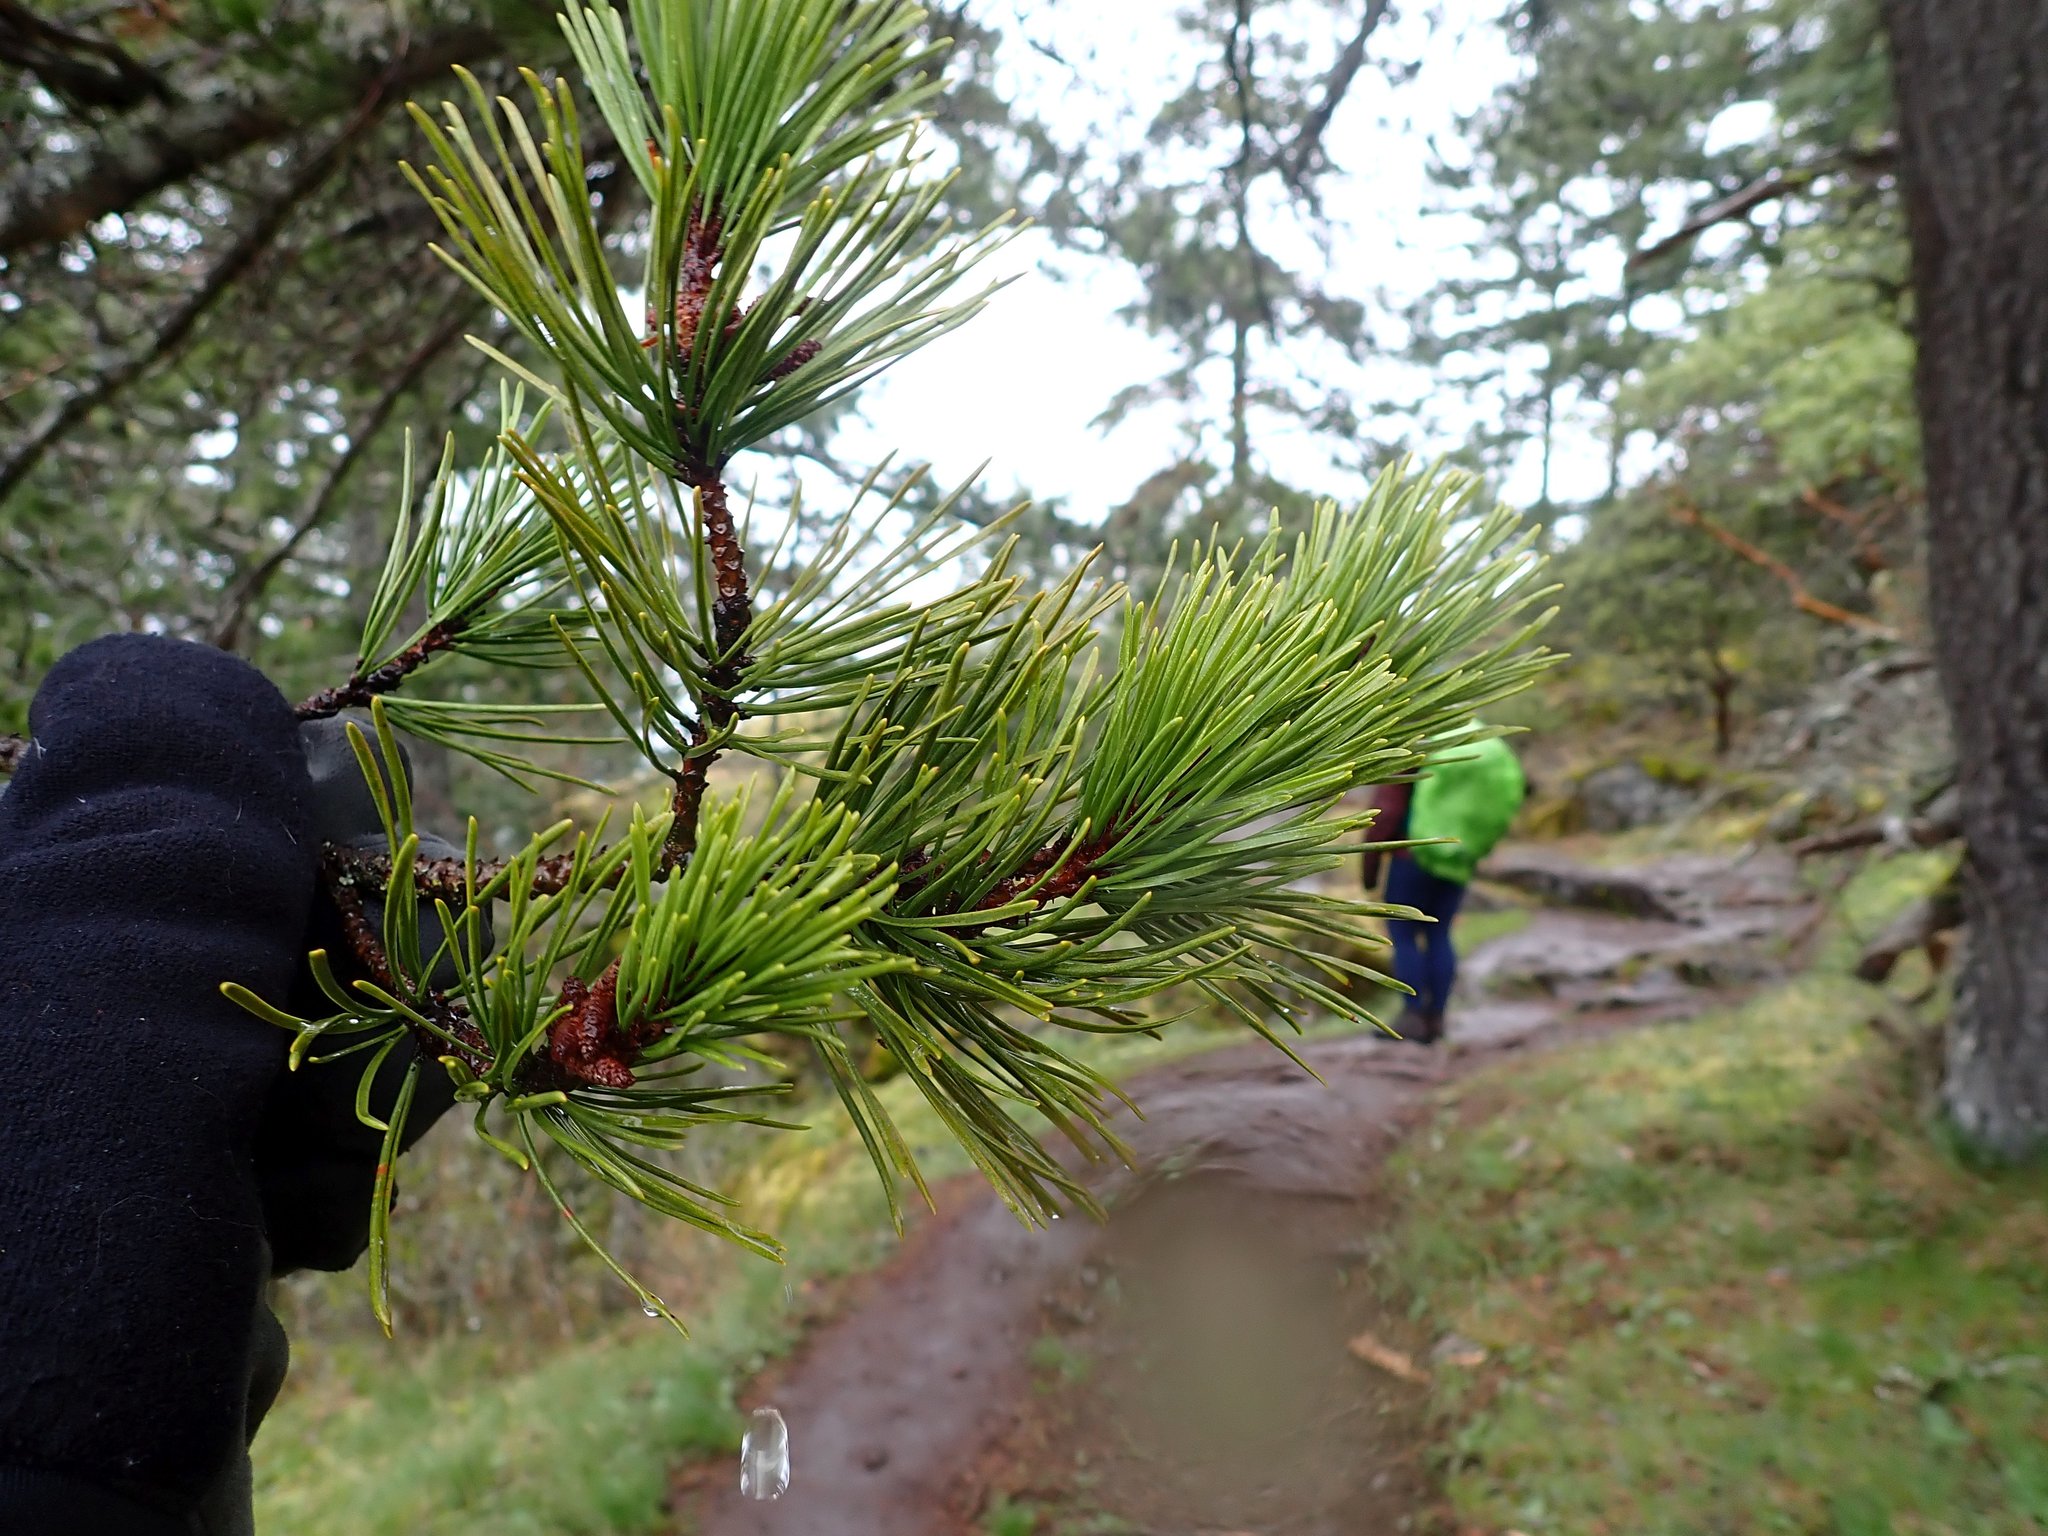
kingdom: Plantae
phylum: Tracheophyta
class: Pinopsida
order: Pinales
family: Pinaceae
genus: Pinus
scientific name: Pinus contorta
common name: Lodgepole pine
